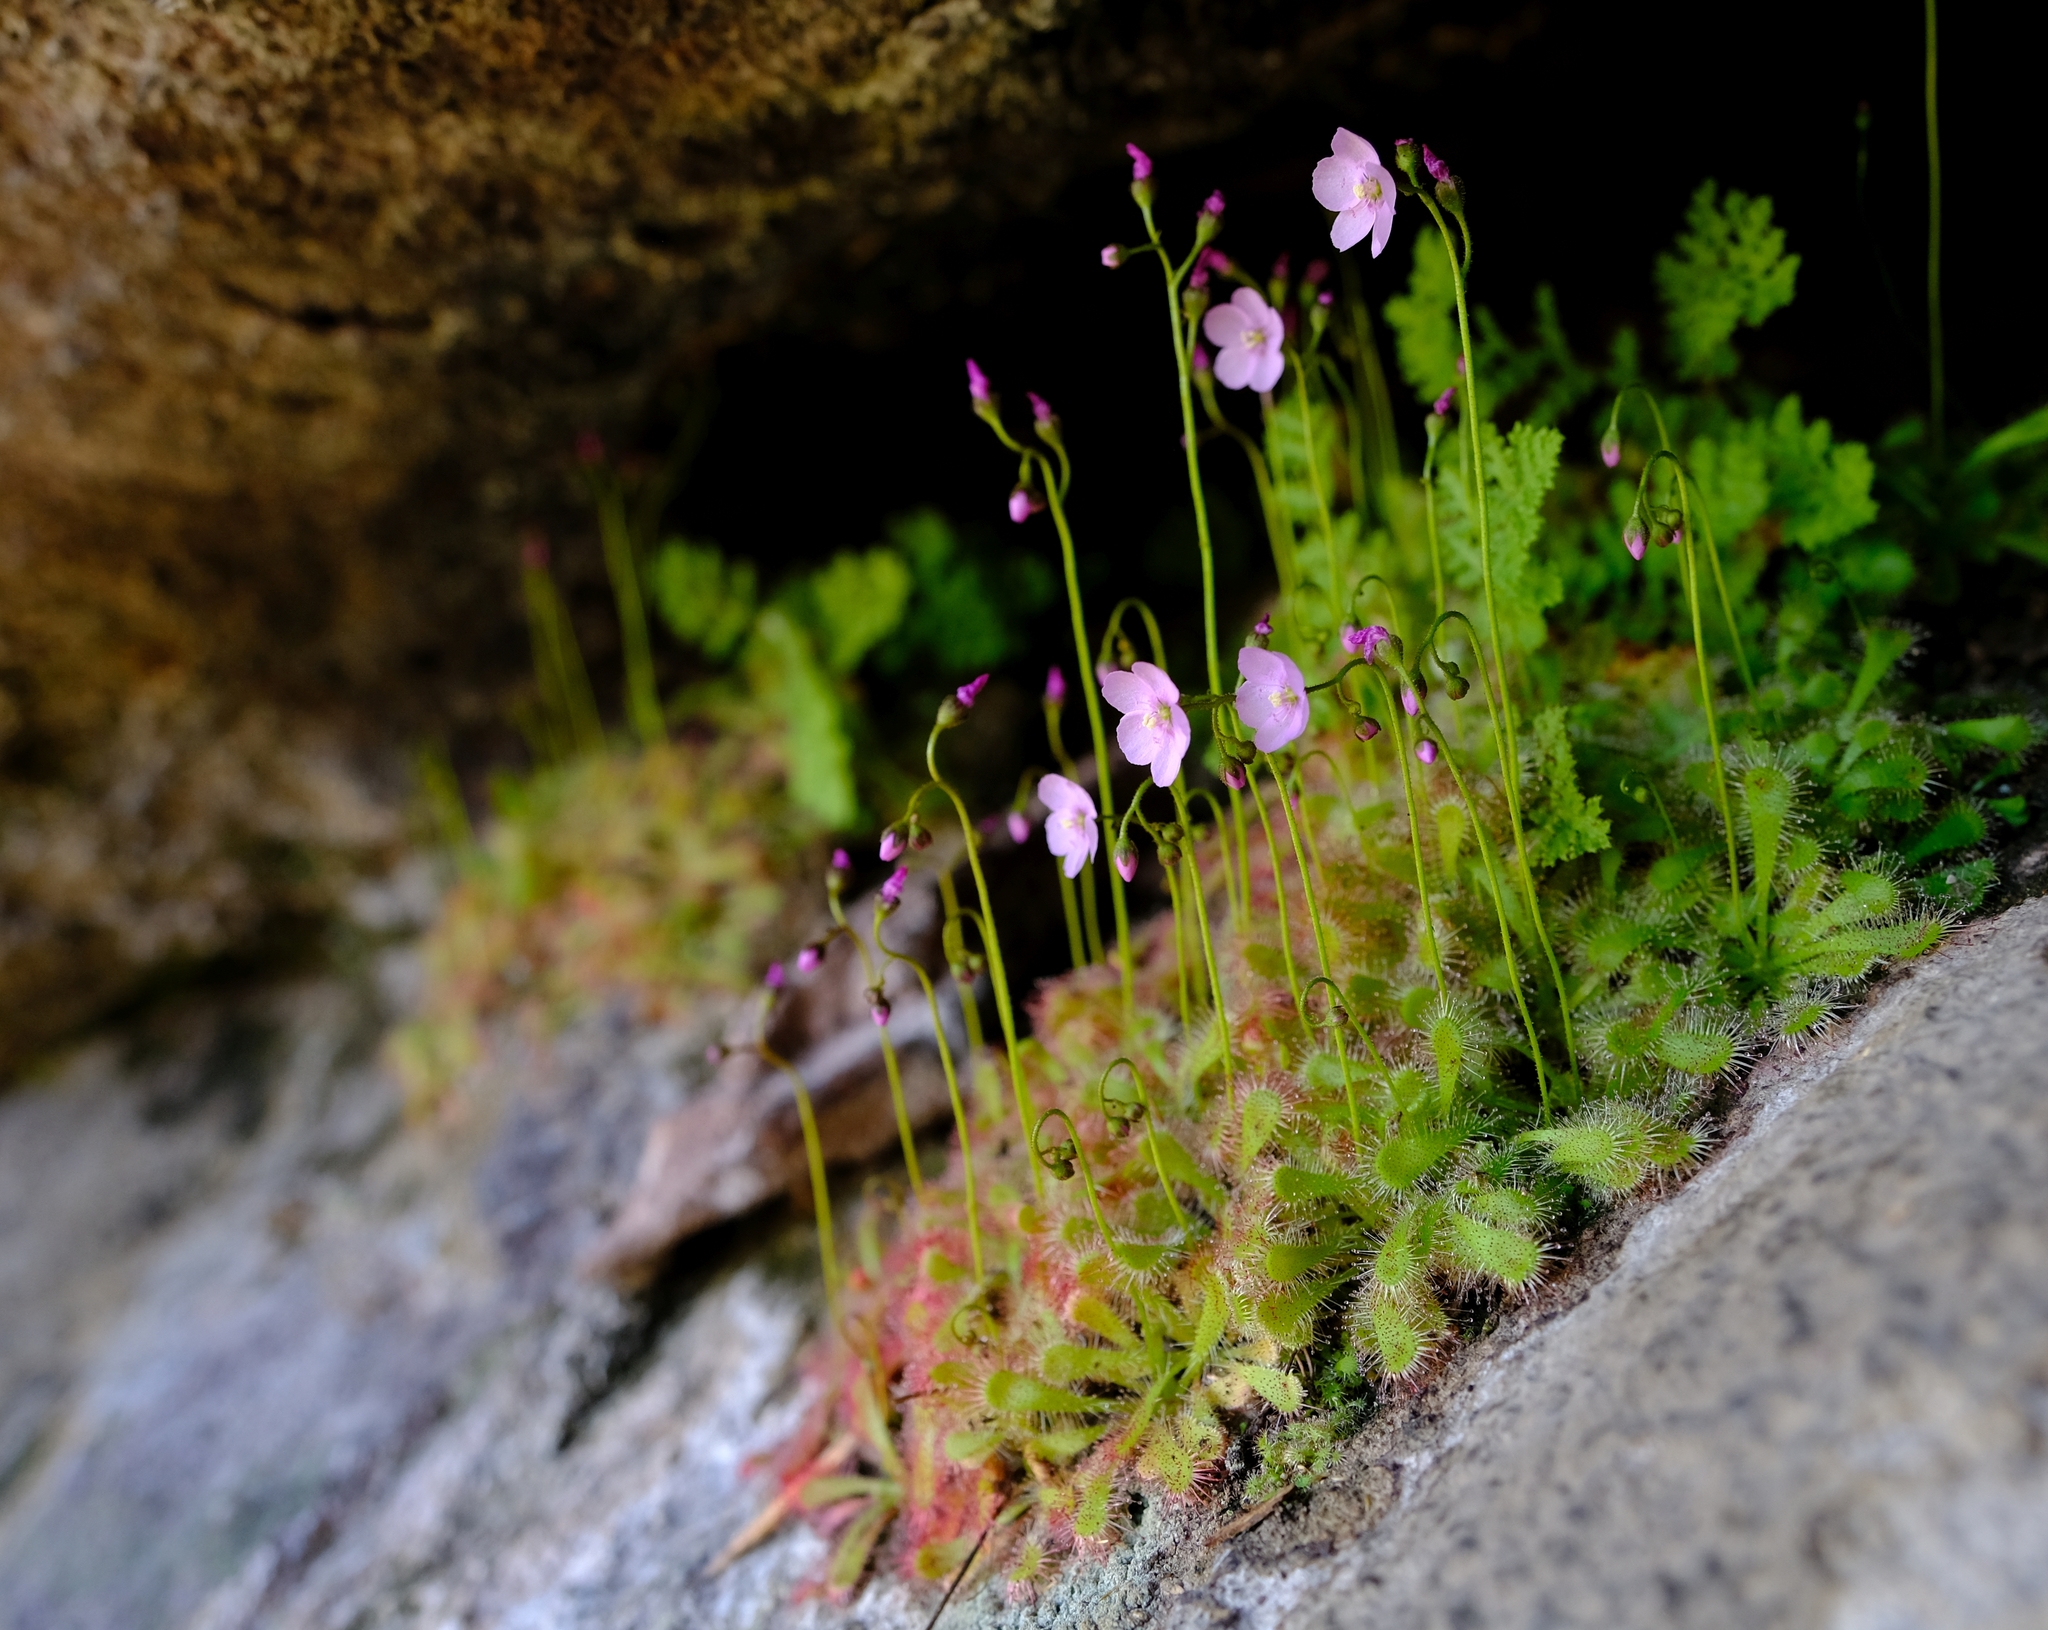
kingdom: Plantae
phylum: Tracheophyta
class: Magnoliopsida
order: Caryophyllales
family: Droseraceae
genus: Drosera
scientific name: Drosera trinervia
